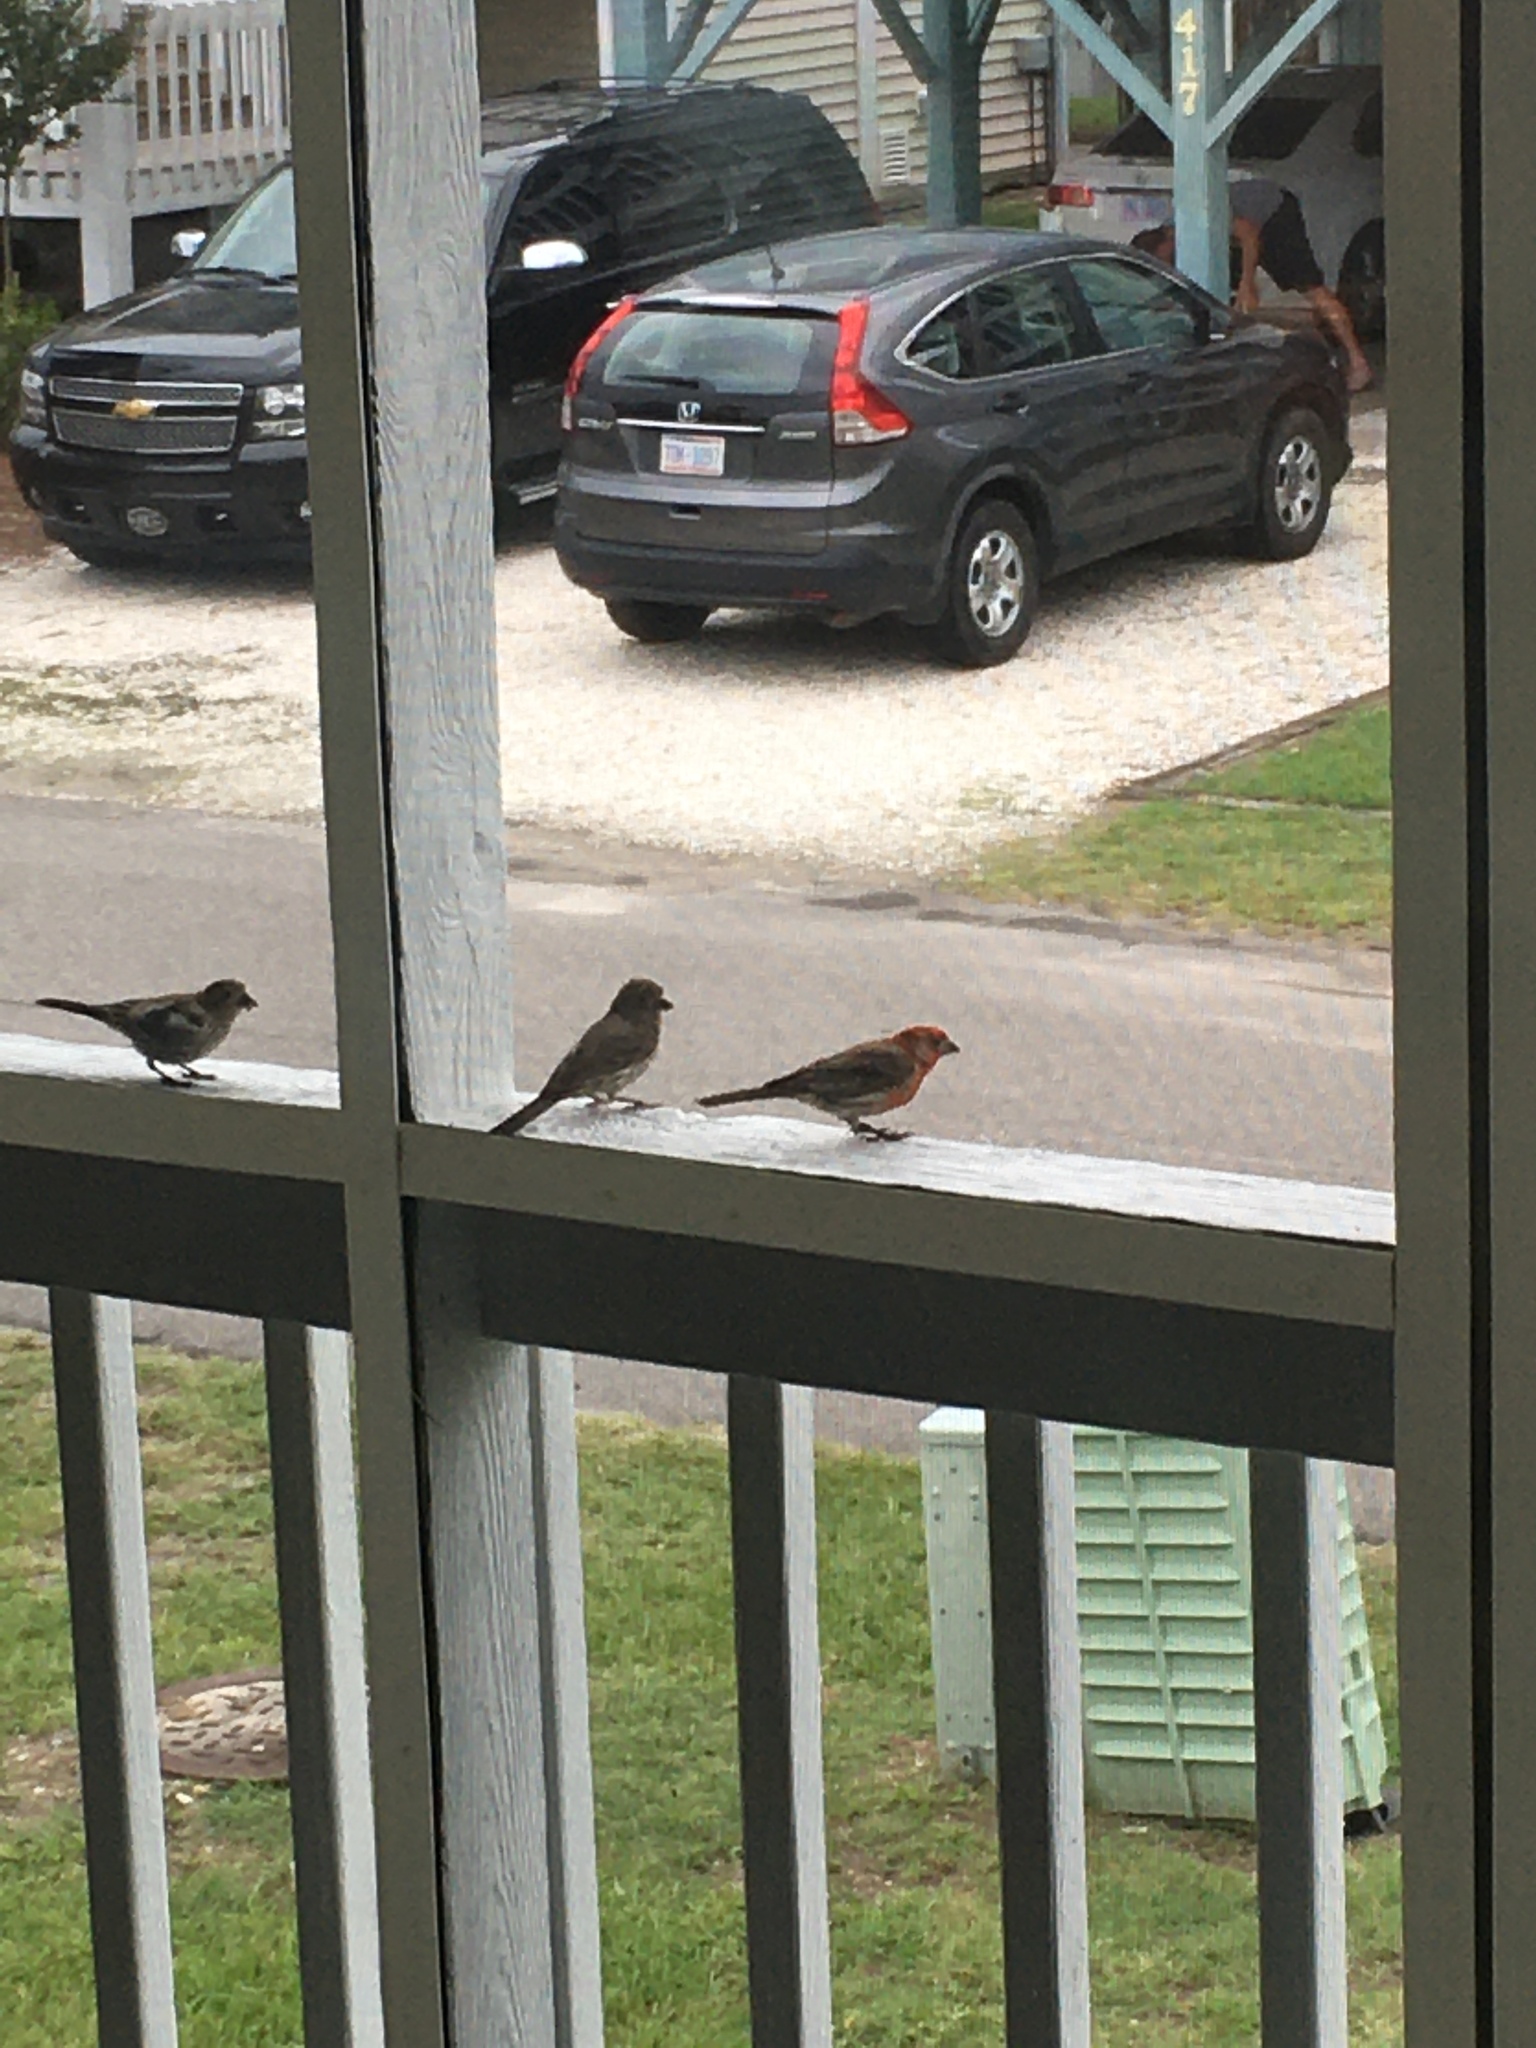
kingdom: Animalia
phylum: Chordata
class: Aves
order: Passeriformes
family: Fringillidae
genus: Haemorhous
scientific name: Haemorhous mexicanus
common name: House finch
